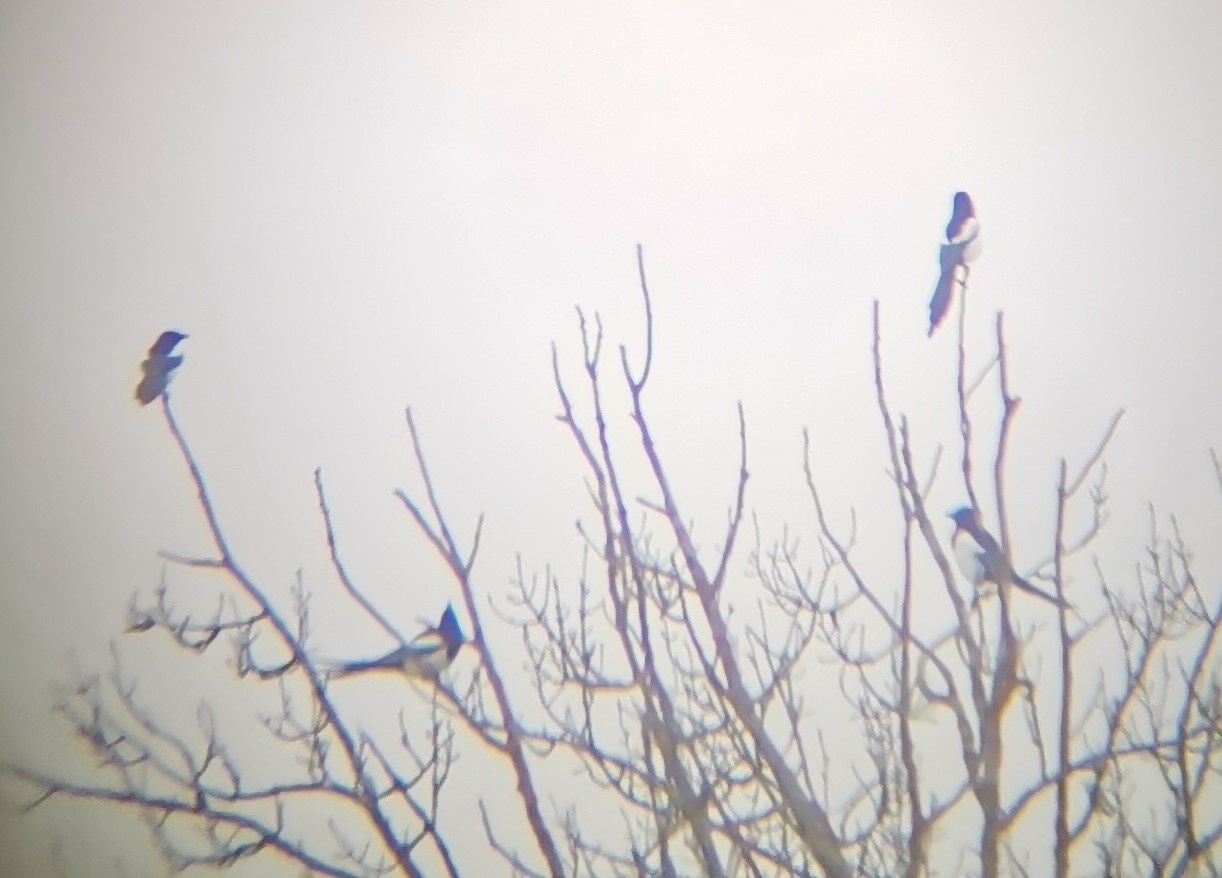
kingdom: Animalia
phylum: Chordata
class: Aves
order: Passeriformes
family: Corvidae
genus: Pica
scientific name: Pica pica
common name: Eurasian magpie
